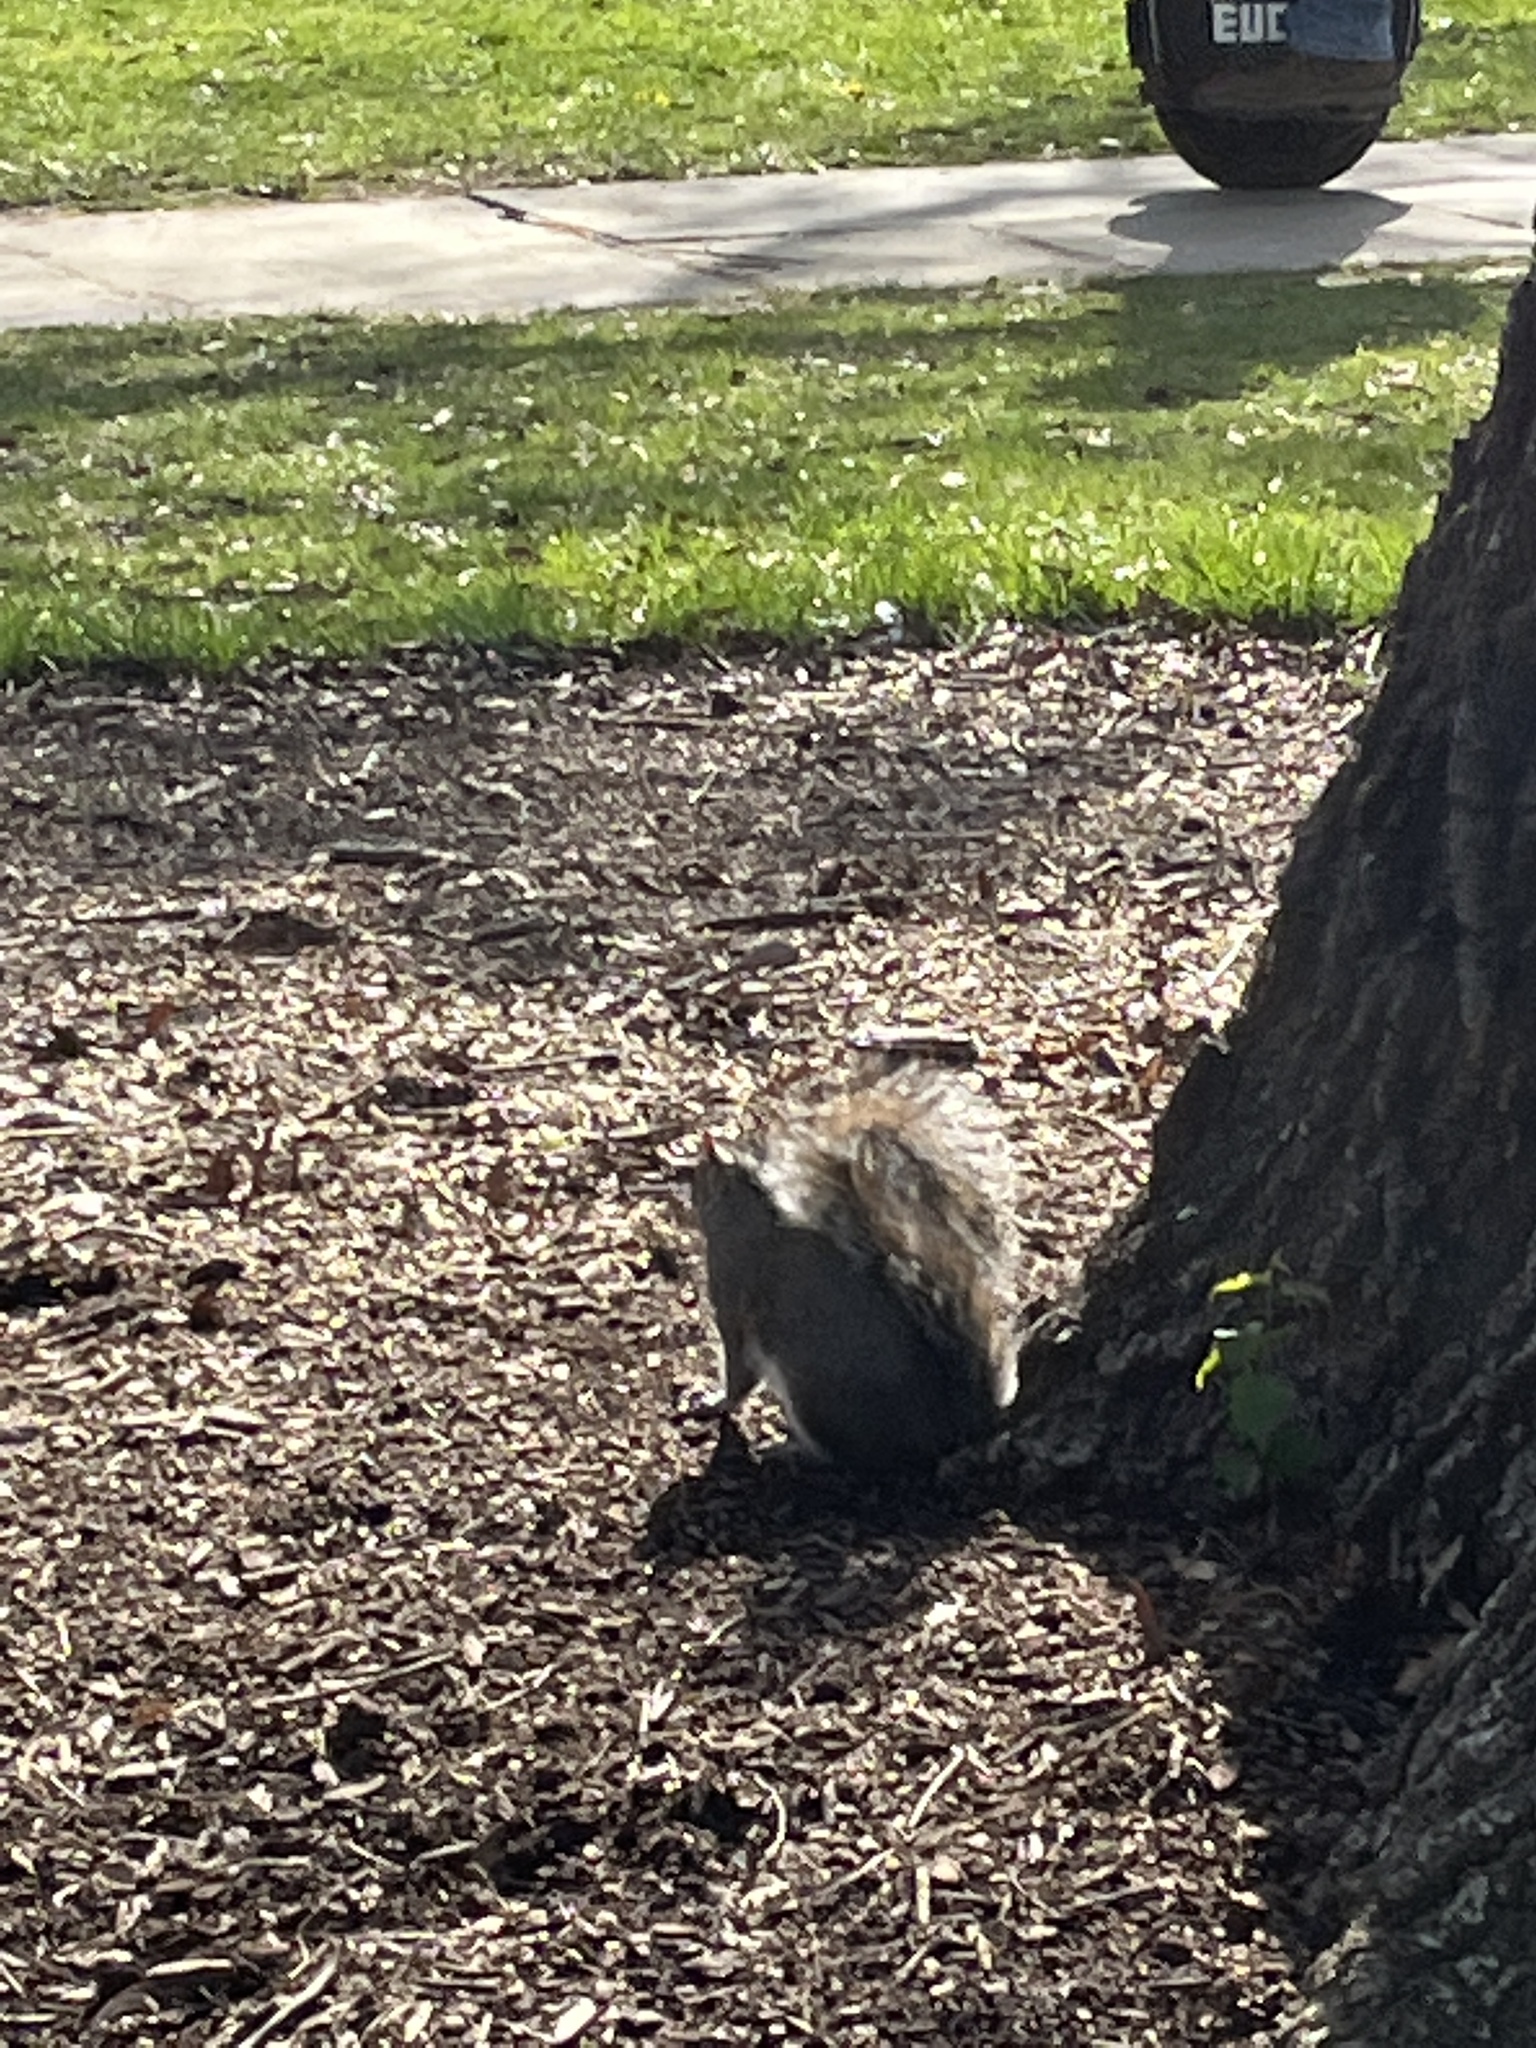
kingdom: Animalia
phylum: Chordata
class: Mammalia
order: Rodentia
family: Sciuridae
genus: Sciurus
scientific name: Sciurus carolinensis
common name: Eastern gray squirrel
